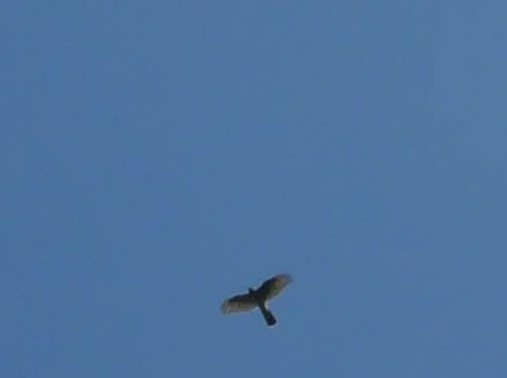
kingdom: Animalia
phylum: Chordata
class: Aves
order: Accipitriformes
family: Accipitridae
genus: Accipiter
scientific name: Accipiter nisus
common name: Eurasian sparrowhawk
